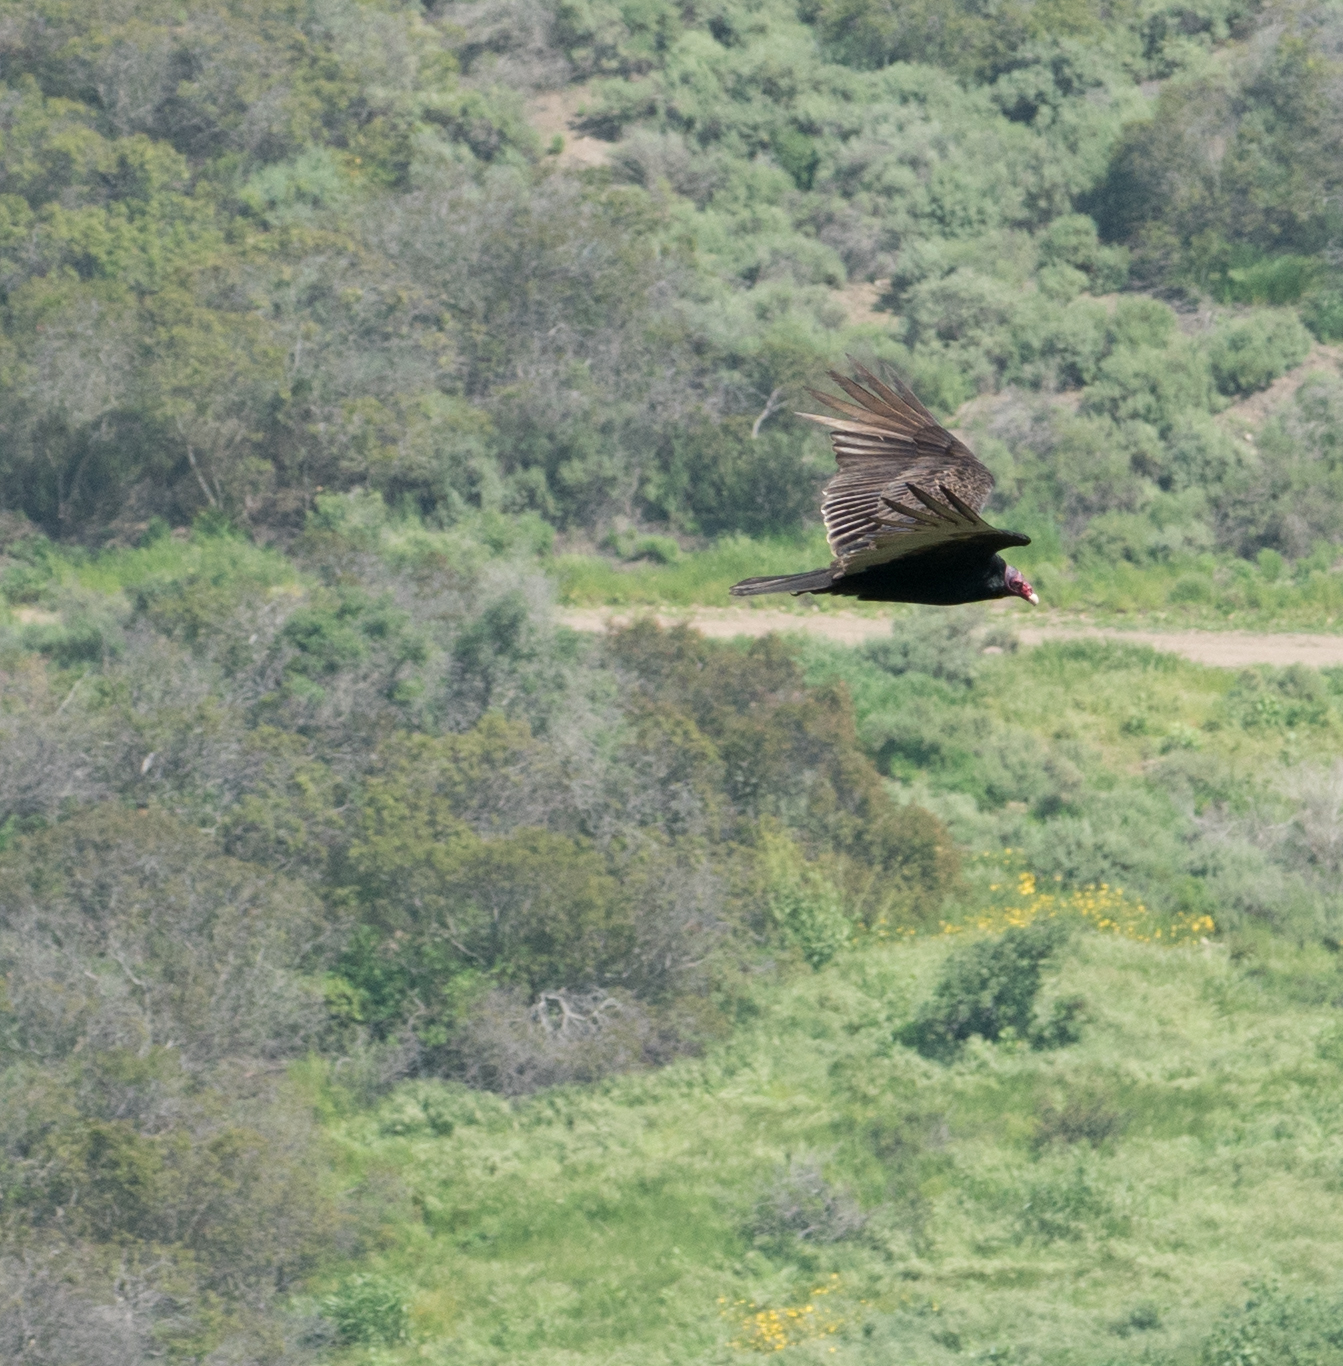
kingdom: Animalia
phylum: Chordata
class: Aves
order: Accipitriformes
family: Cathartidae
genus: Cathartes
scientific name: Cathartes aura
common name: Turkey vulture
